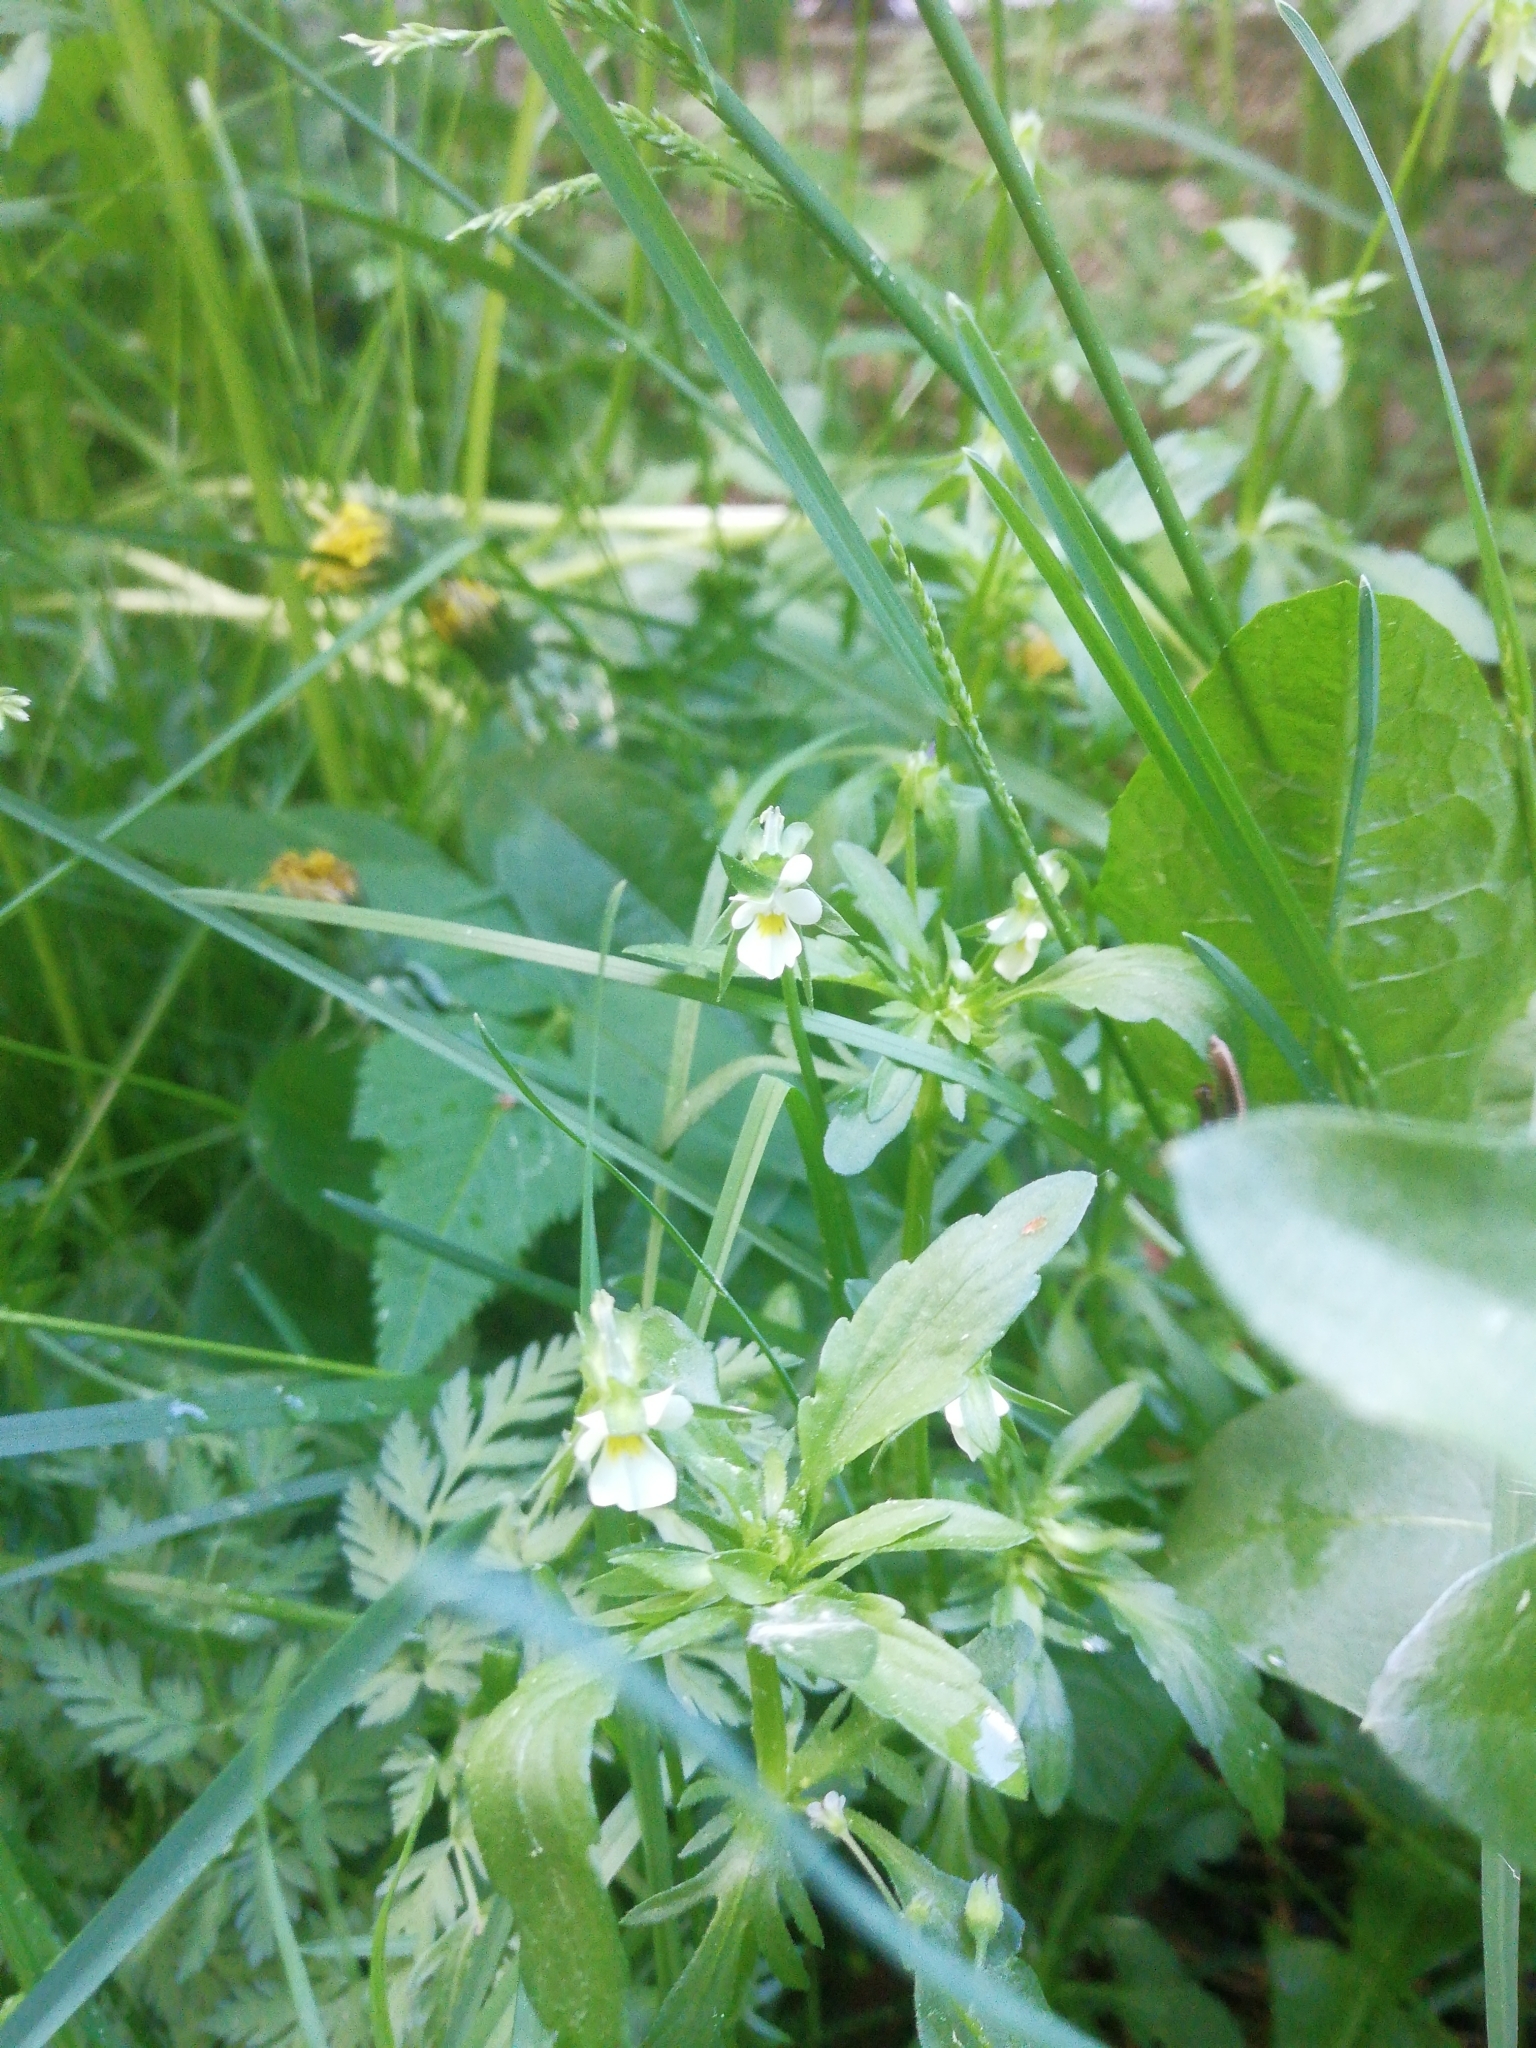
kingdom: Plantae
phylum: Tracheophyta
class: Magnoliopsida
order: Malpighiales
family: Violaceae
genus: Viola
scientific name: Viola arvensis
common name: Field pansy
